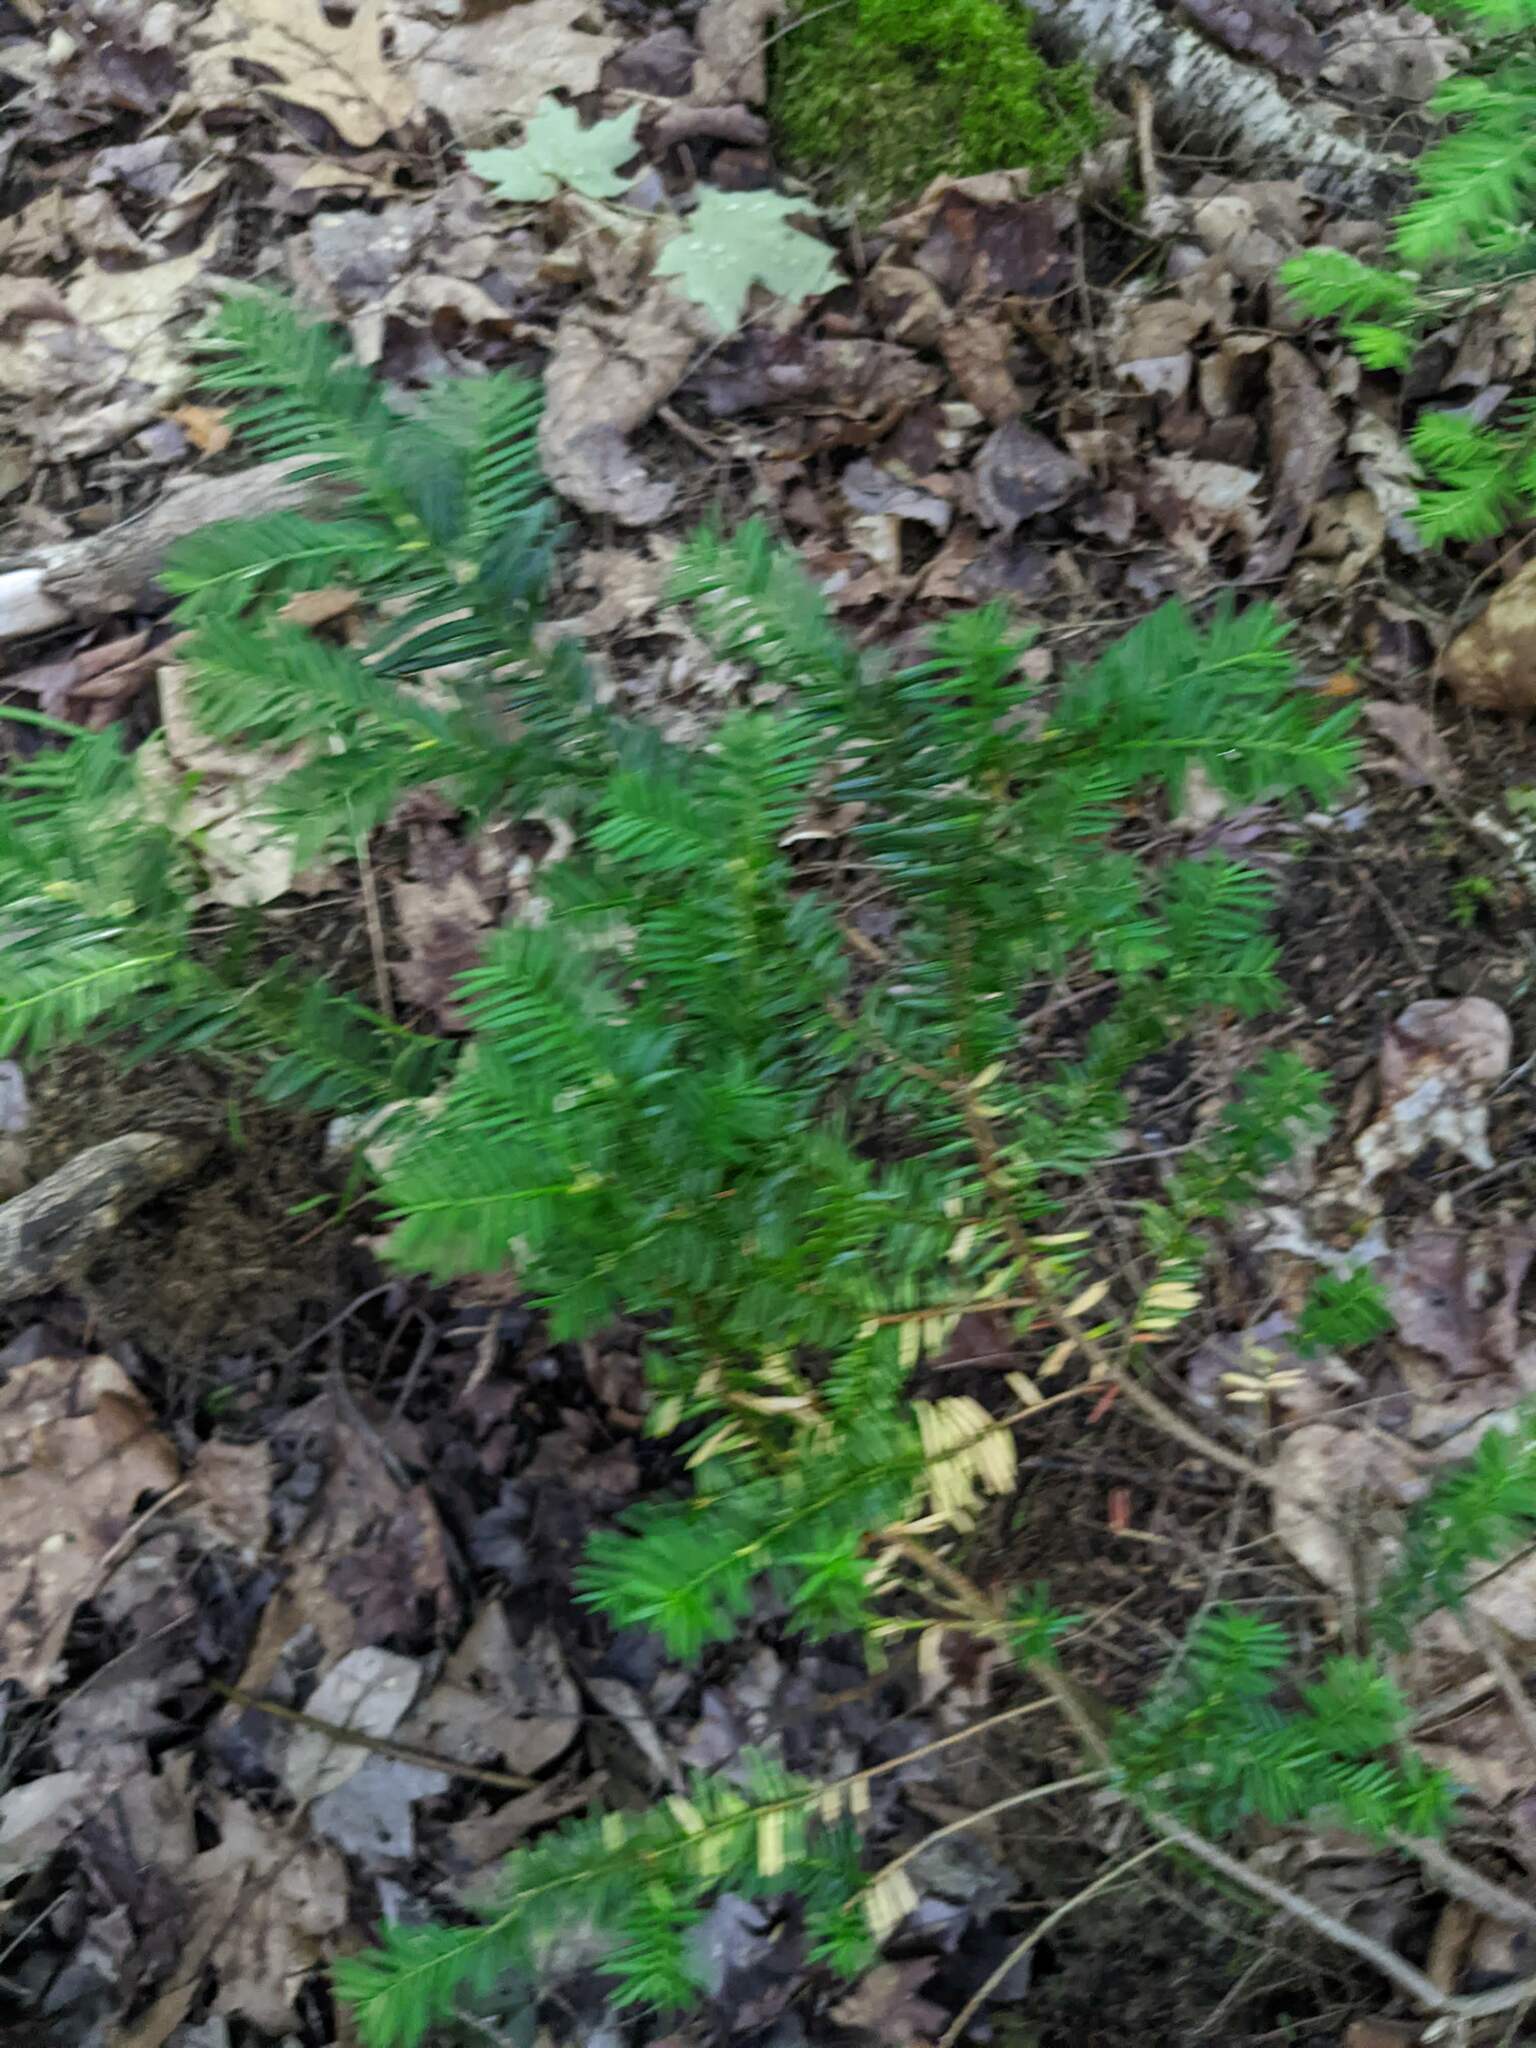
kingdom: Plantae
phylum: Tracheophyta
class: Pinopsida
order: Pinales
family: Taxaceae
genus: Taxus
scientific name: Taxus canadensis
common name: American yew
